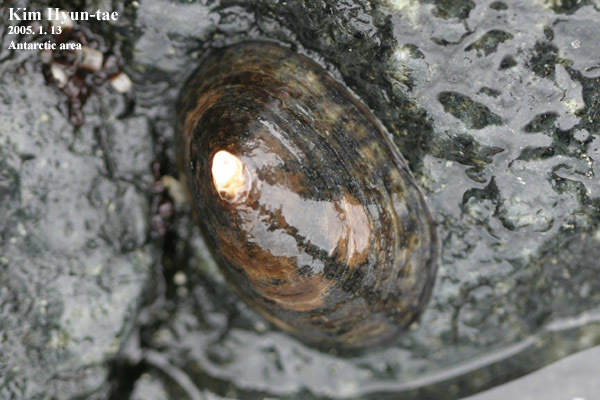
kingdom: Animalia
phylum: Mollusca
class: Gastropoda
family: Nacellidae
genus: Nacella
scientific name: Nacella concinna
